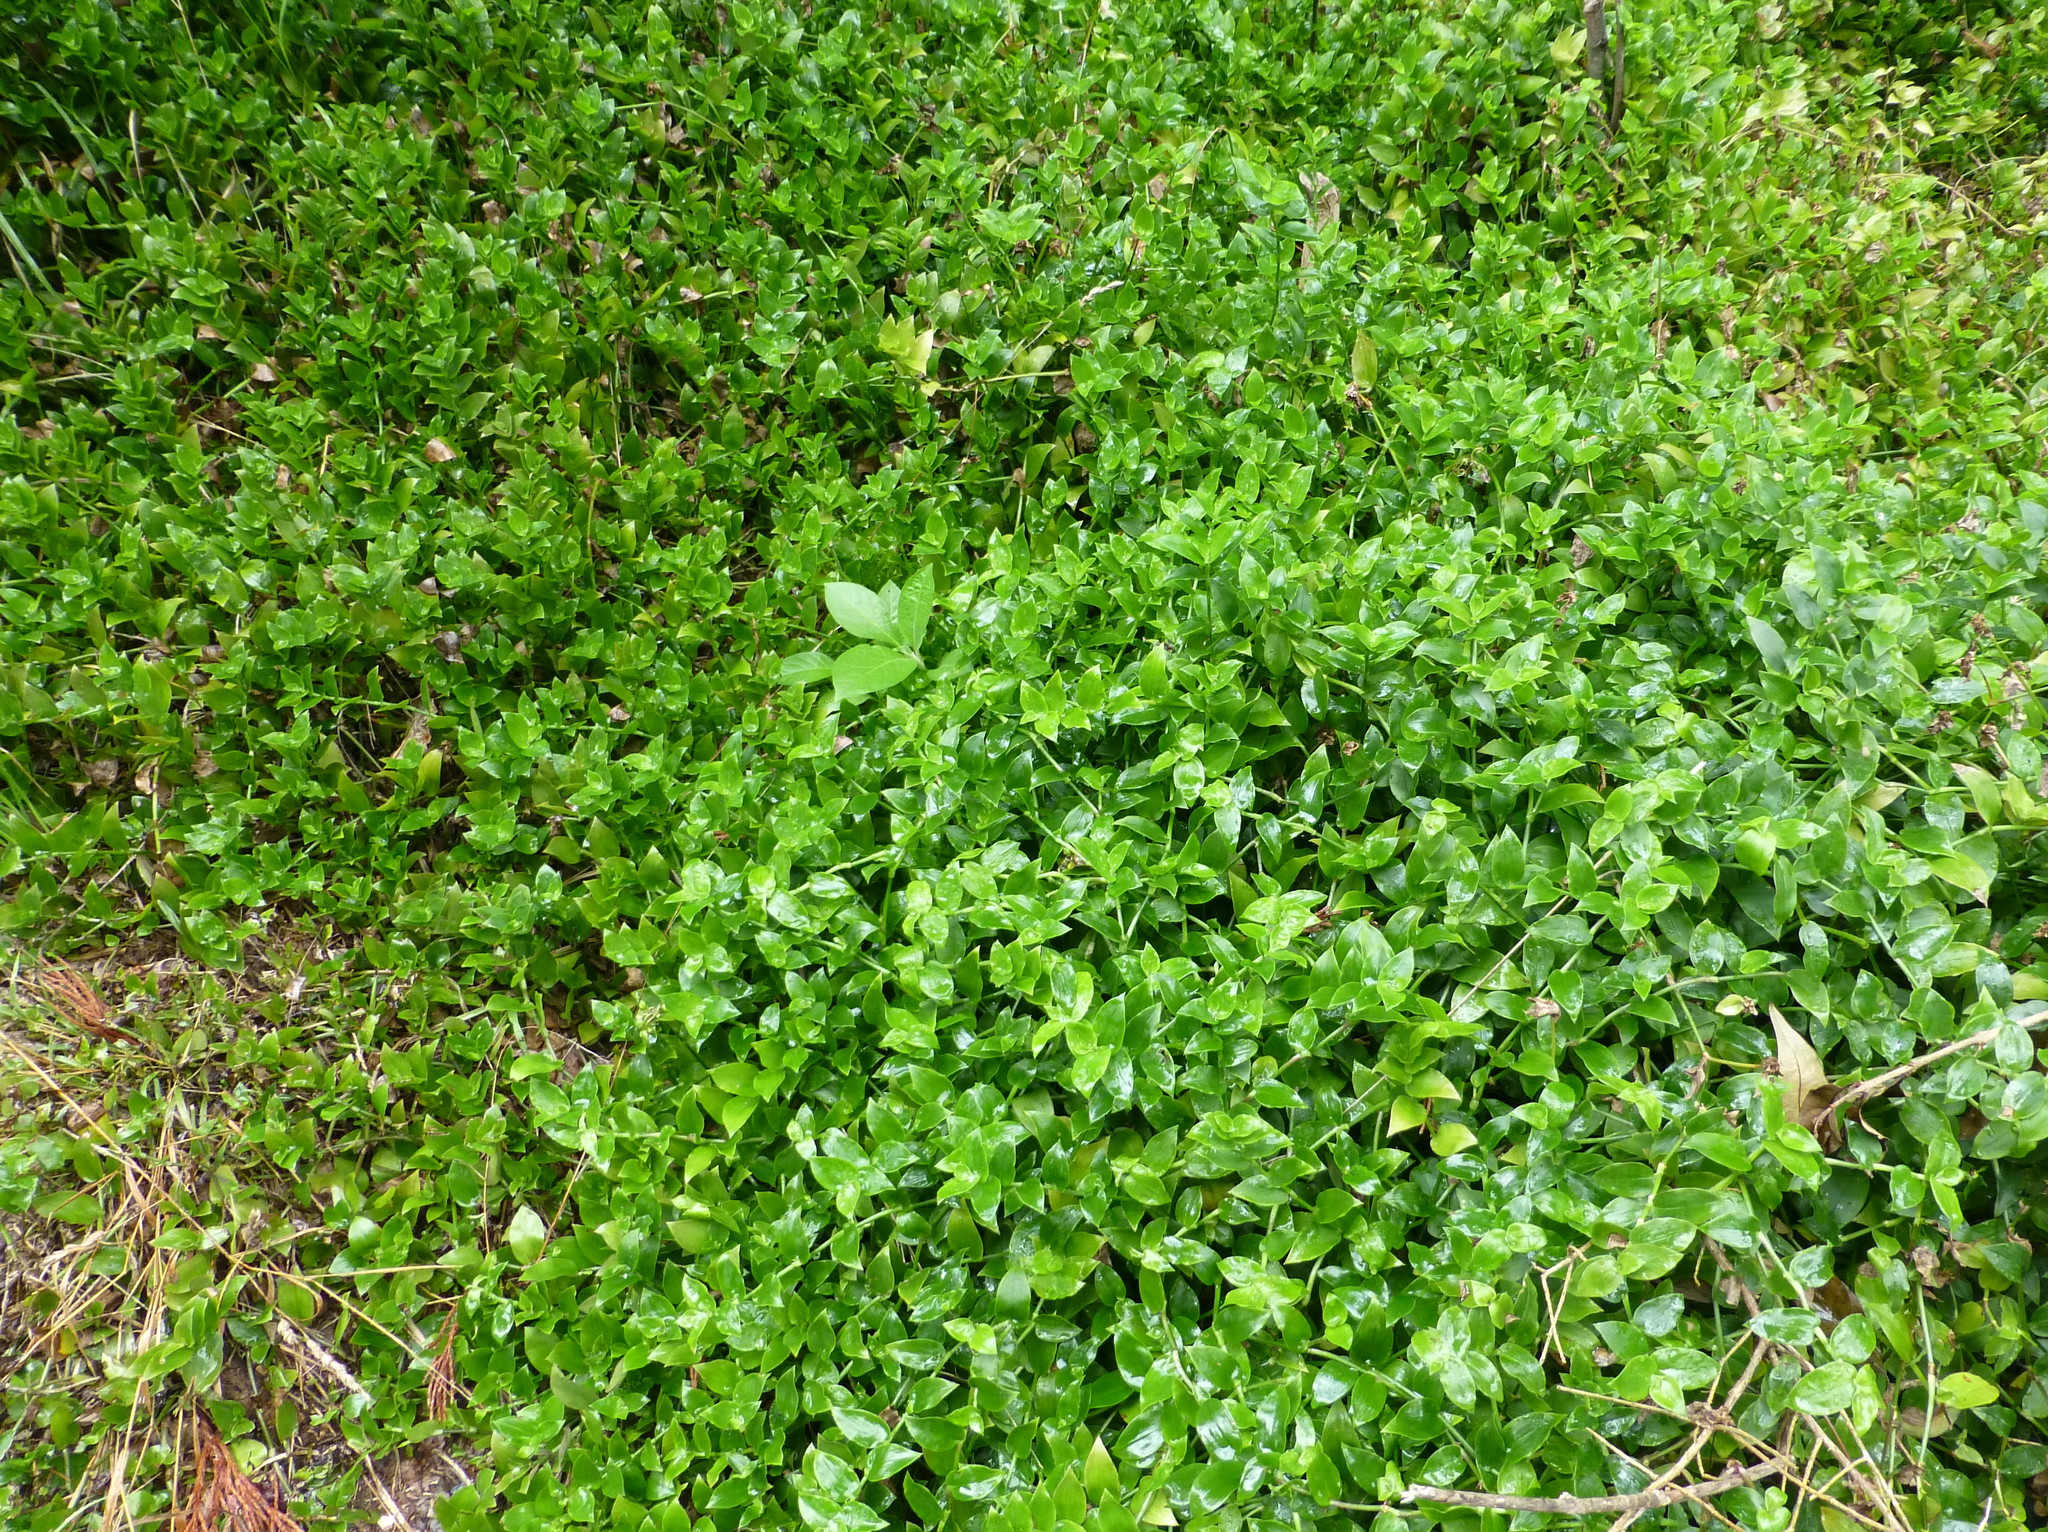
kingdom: Plantae
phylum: Tracheophyta
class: Liliopsida
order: Commelinales
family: Commelinaceae
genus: Tradescantia
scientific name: Tradescantia fluminensis
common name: Wandering-jew
